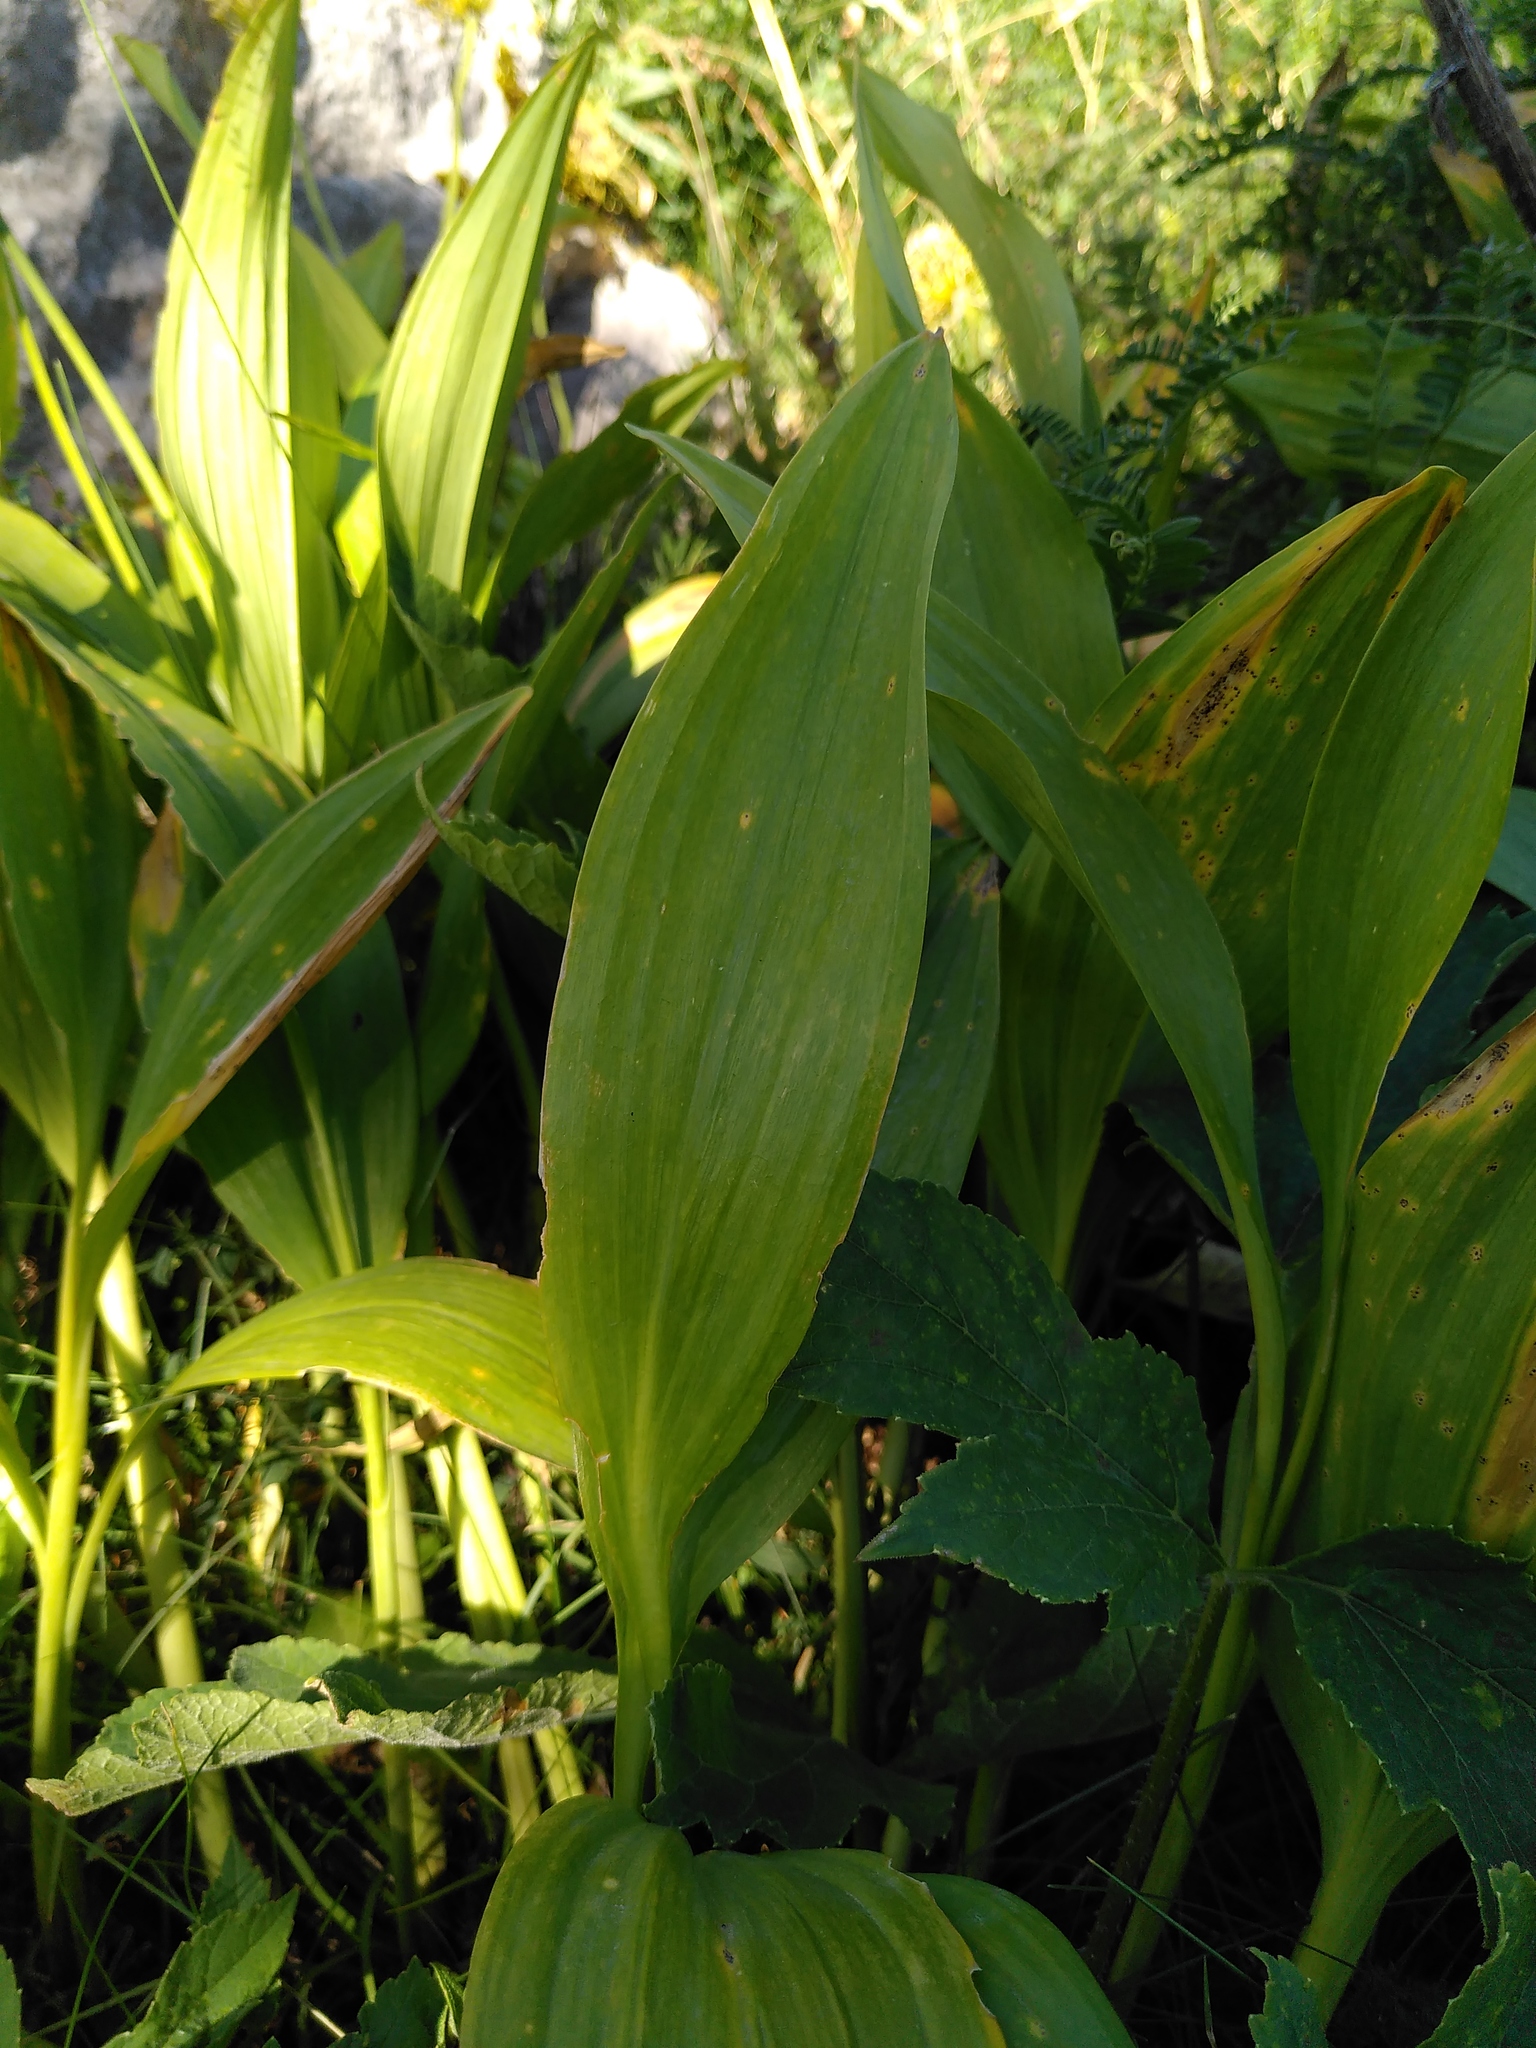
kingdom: Plantae
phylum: Tracheophyta
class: Liliopsida
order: Asparagales
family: Amaryllidaceae
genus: Allium
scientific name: Allium victorialis
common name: Alpine leek
